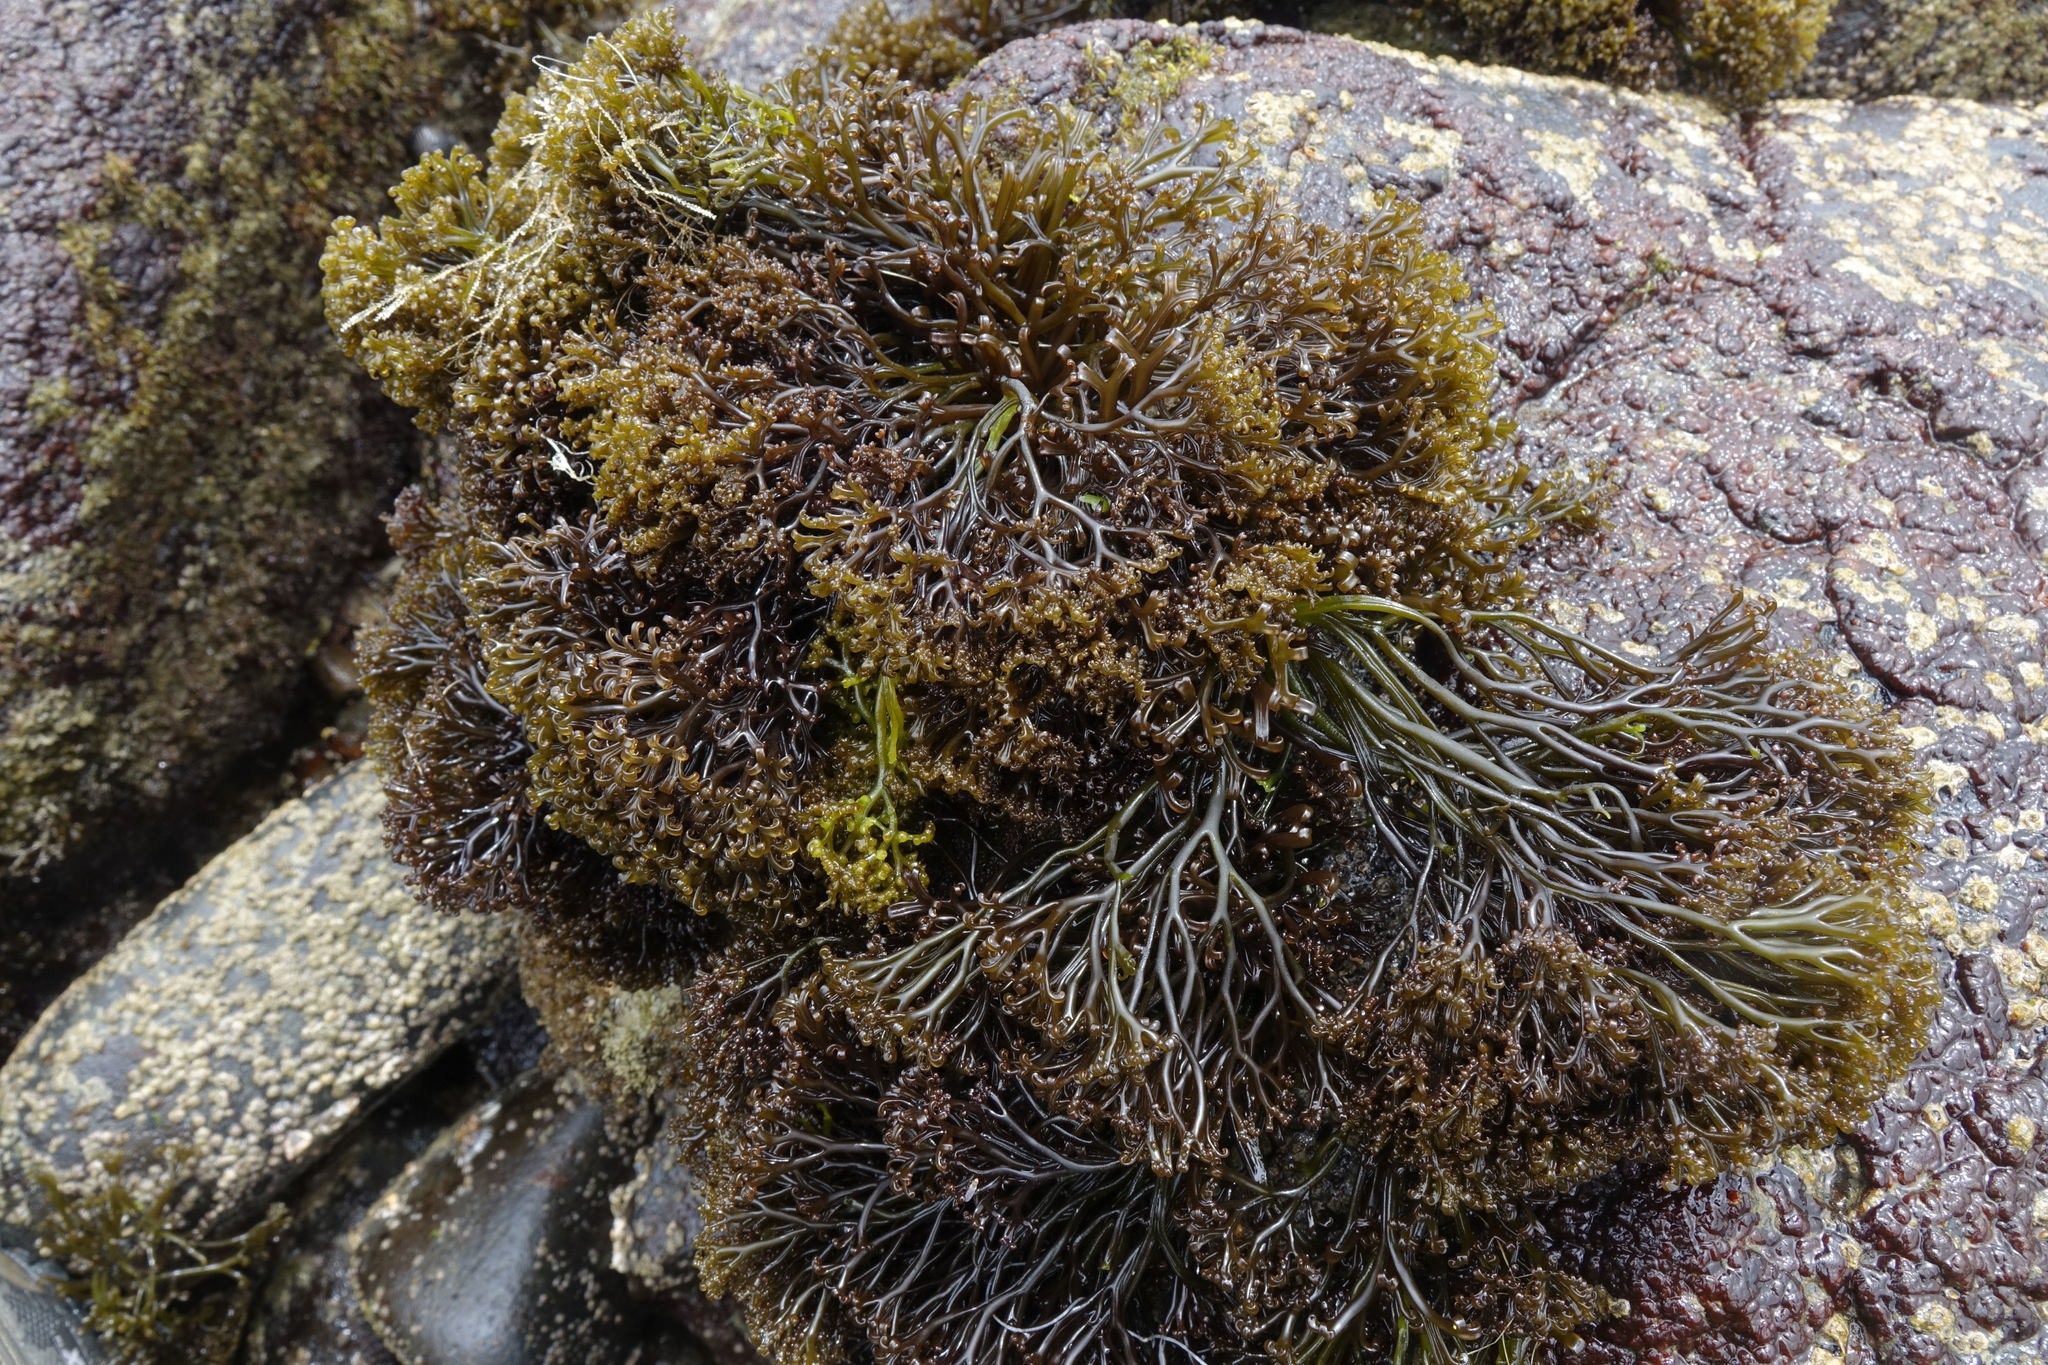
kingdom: Plantae
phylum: Rhodophyta
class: Florideophyceae
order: Gigartinales
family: Gigartinaceae
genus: Psilophycus
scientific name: Psilophycus alveatus
